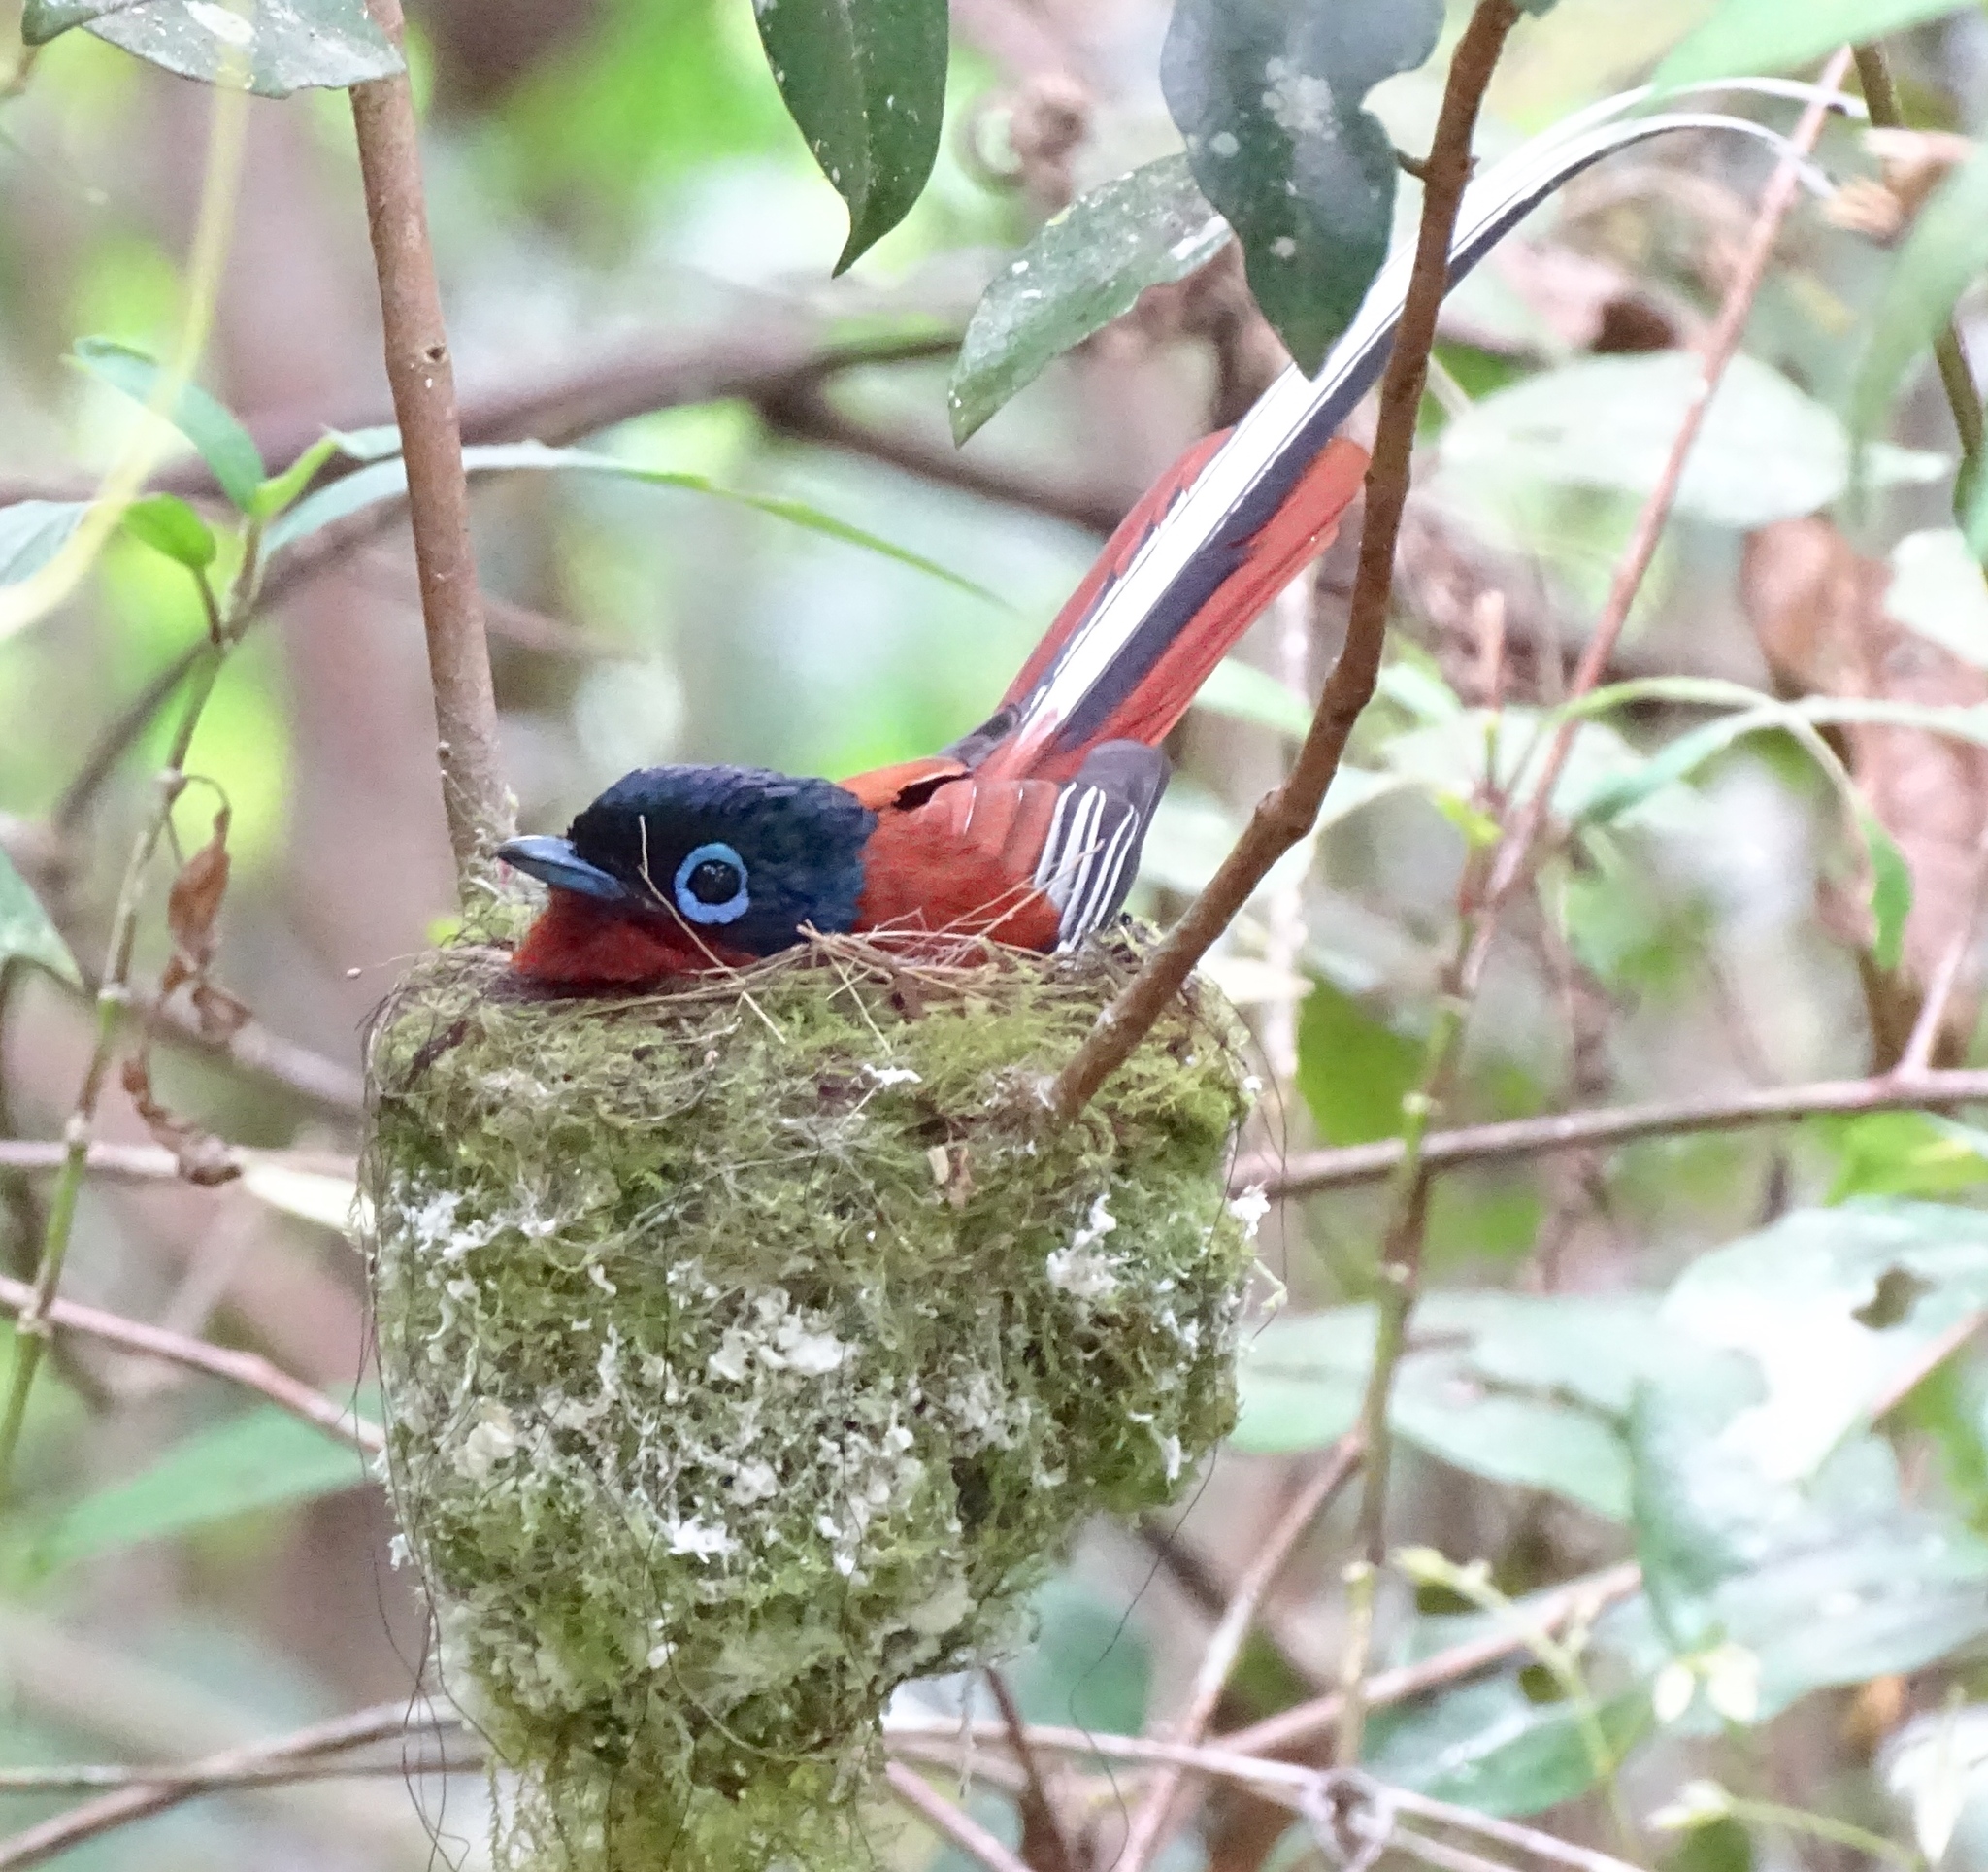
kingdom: Animalia
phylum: Chordata
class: Aves
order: Passeriformes
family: Monarchidae
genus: Terpsiphone
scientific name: Terpsiphone mutata
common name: Malagasy paradise flycatcher
